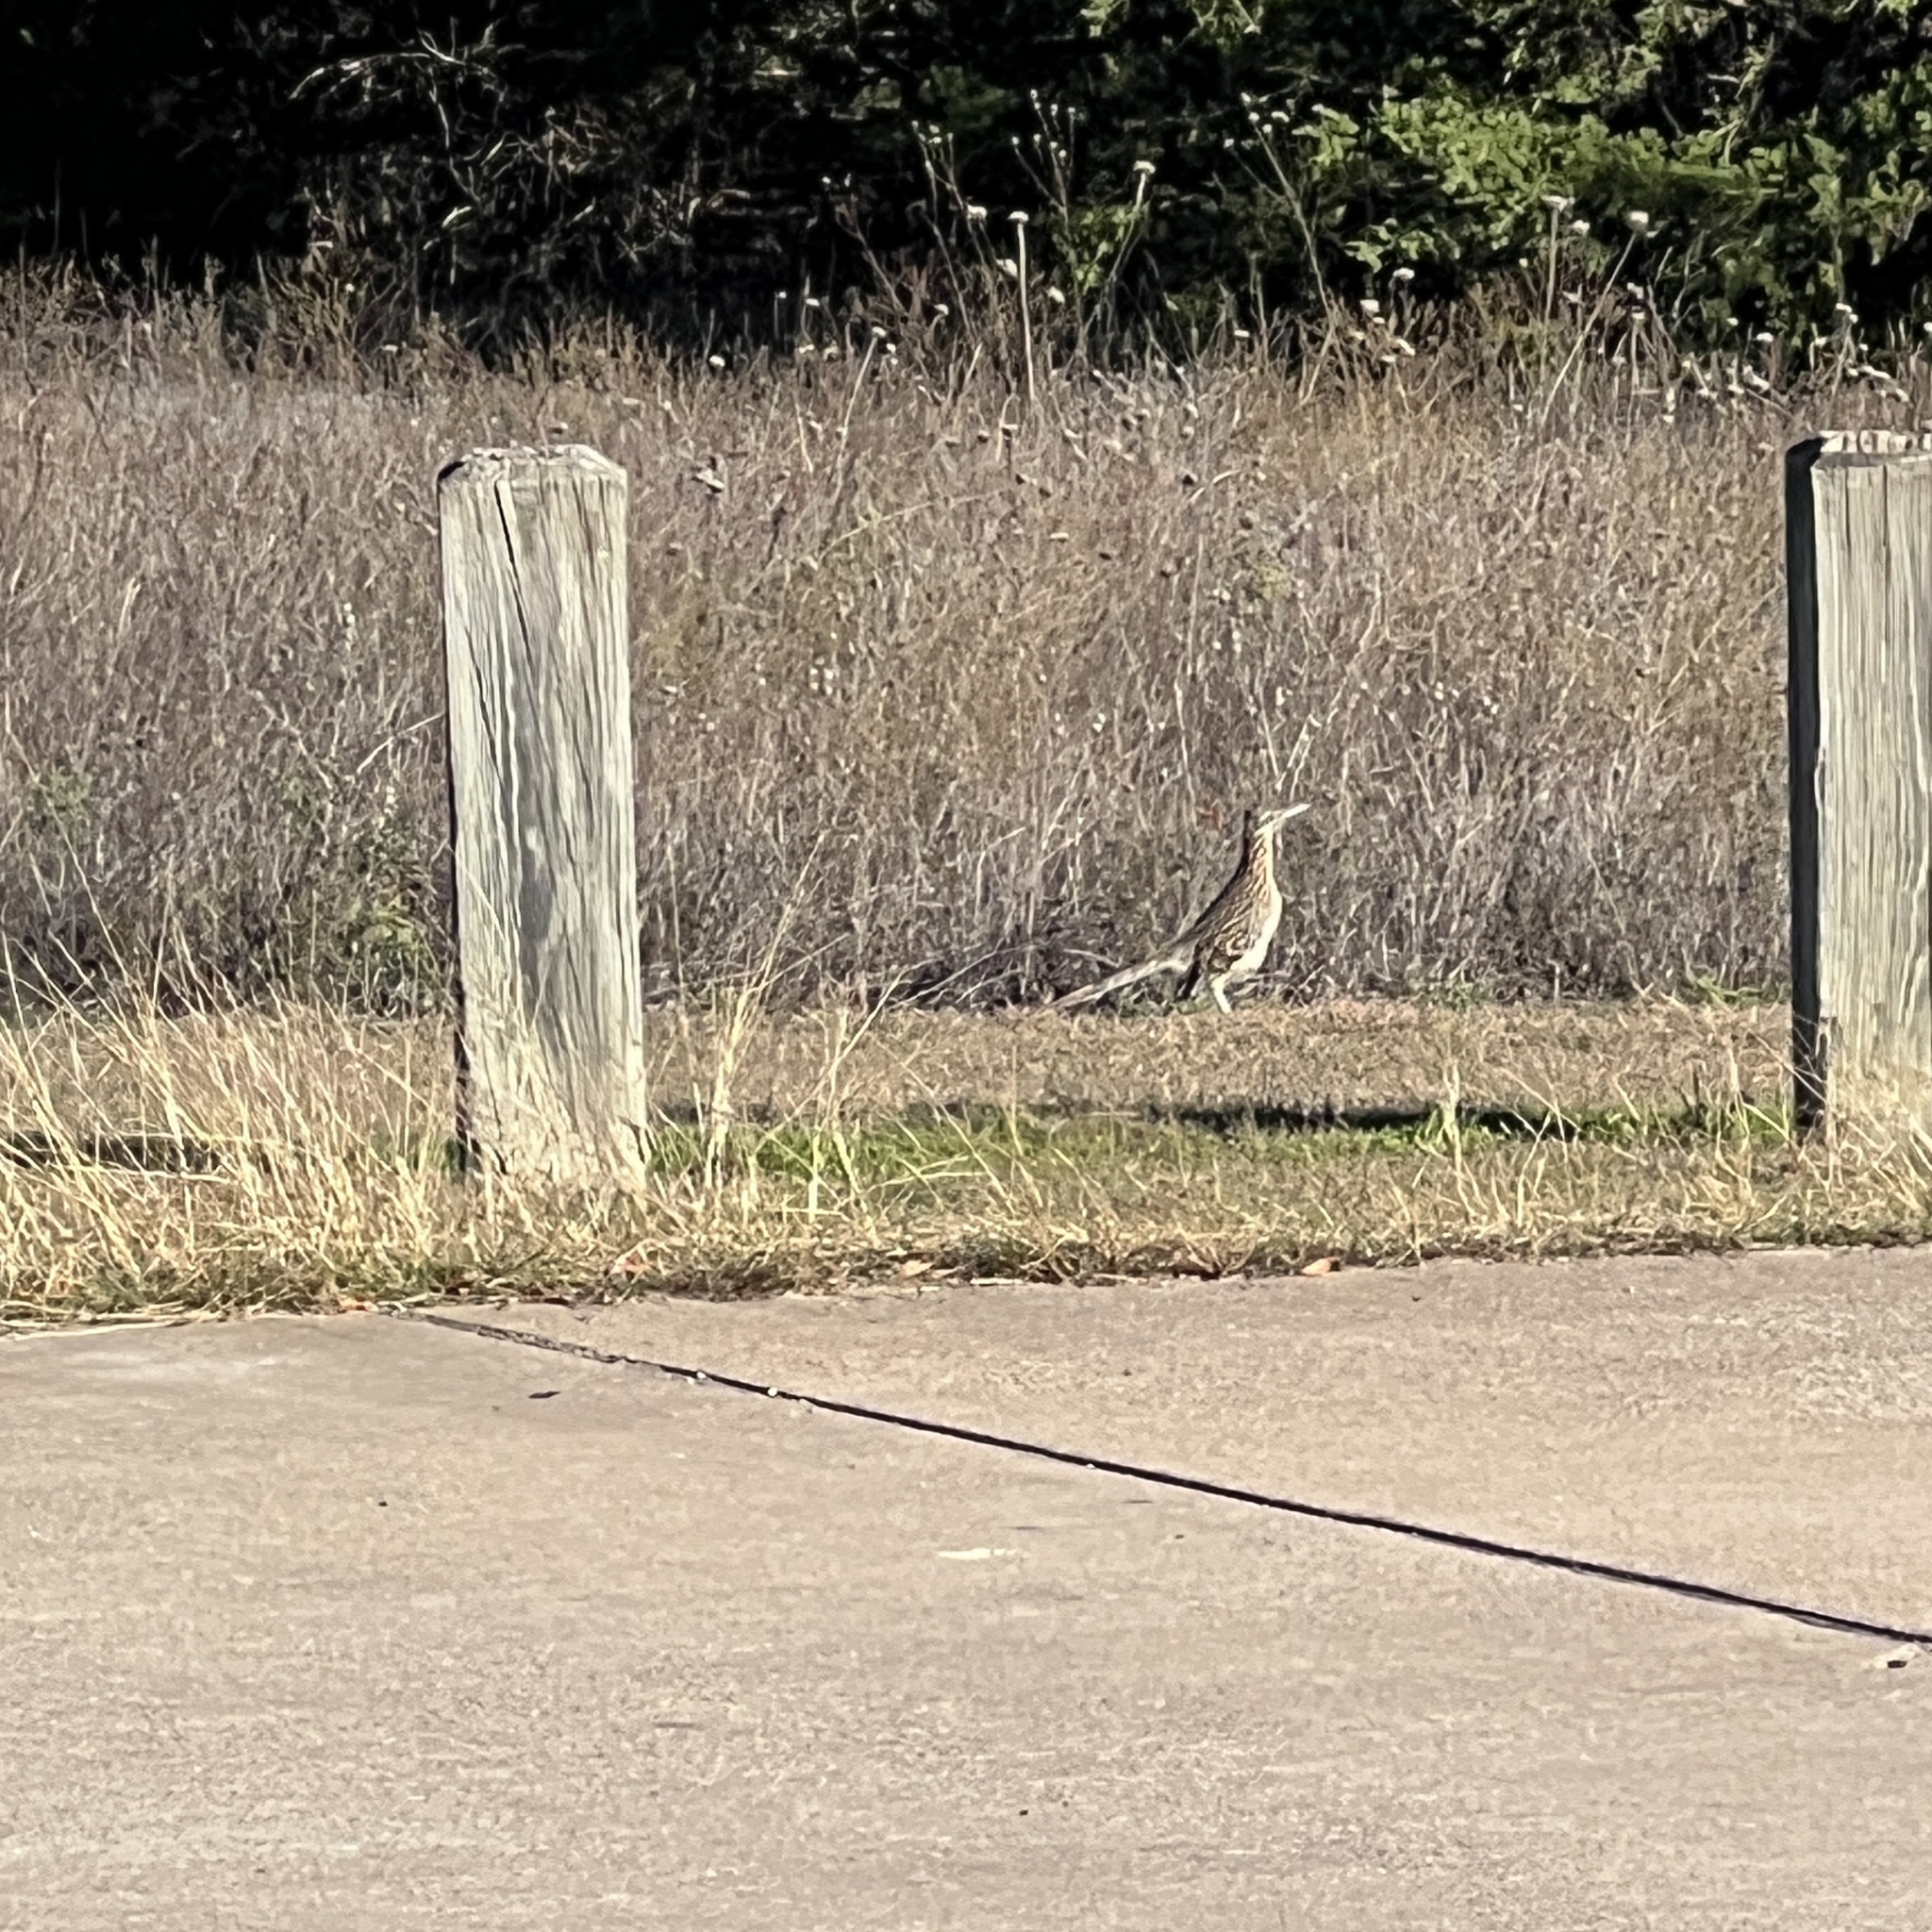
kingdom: Animalia
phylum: Chordata
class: Aves
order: Cuculiformes
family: Cuculidae
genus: Geococcyx
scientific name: Geococcyx californianus
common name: Greater roadrunner
